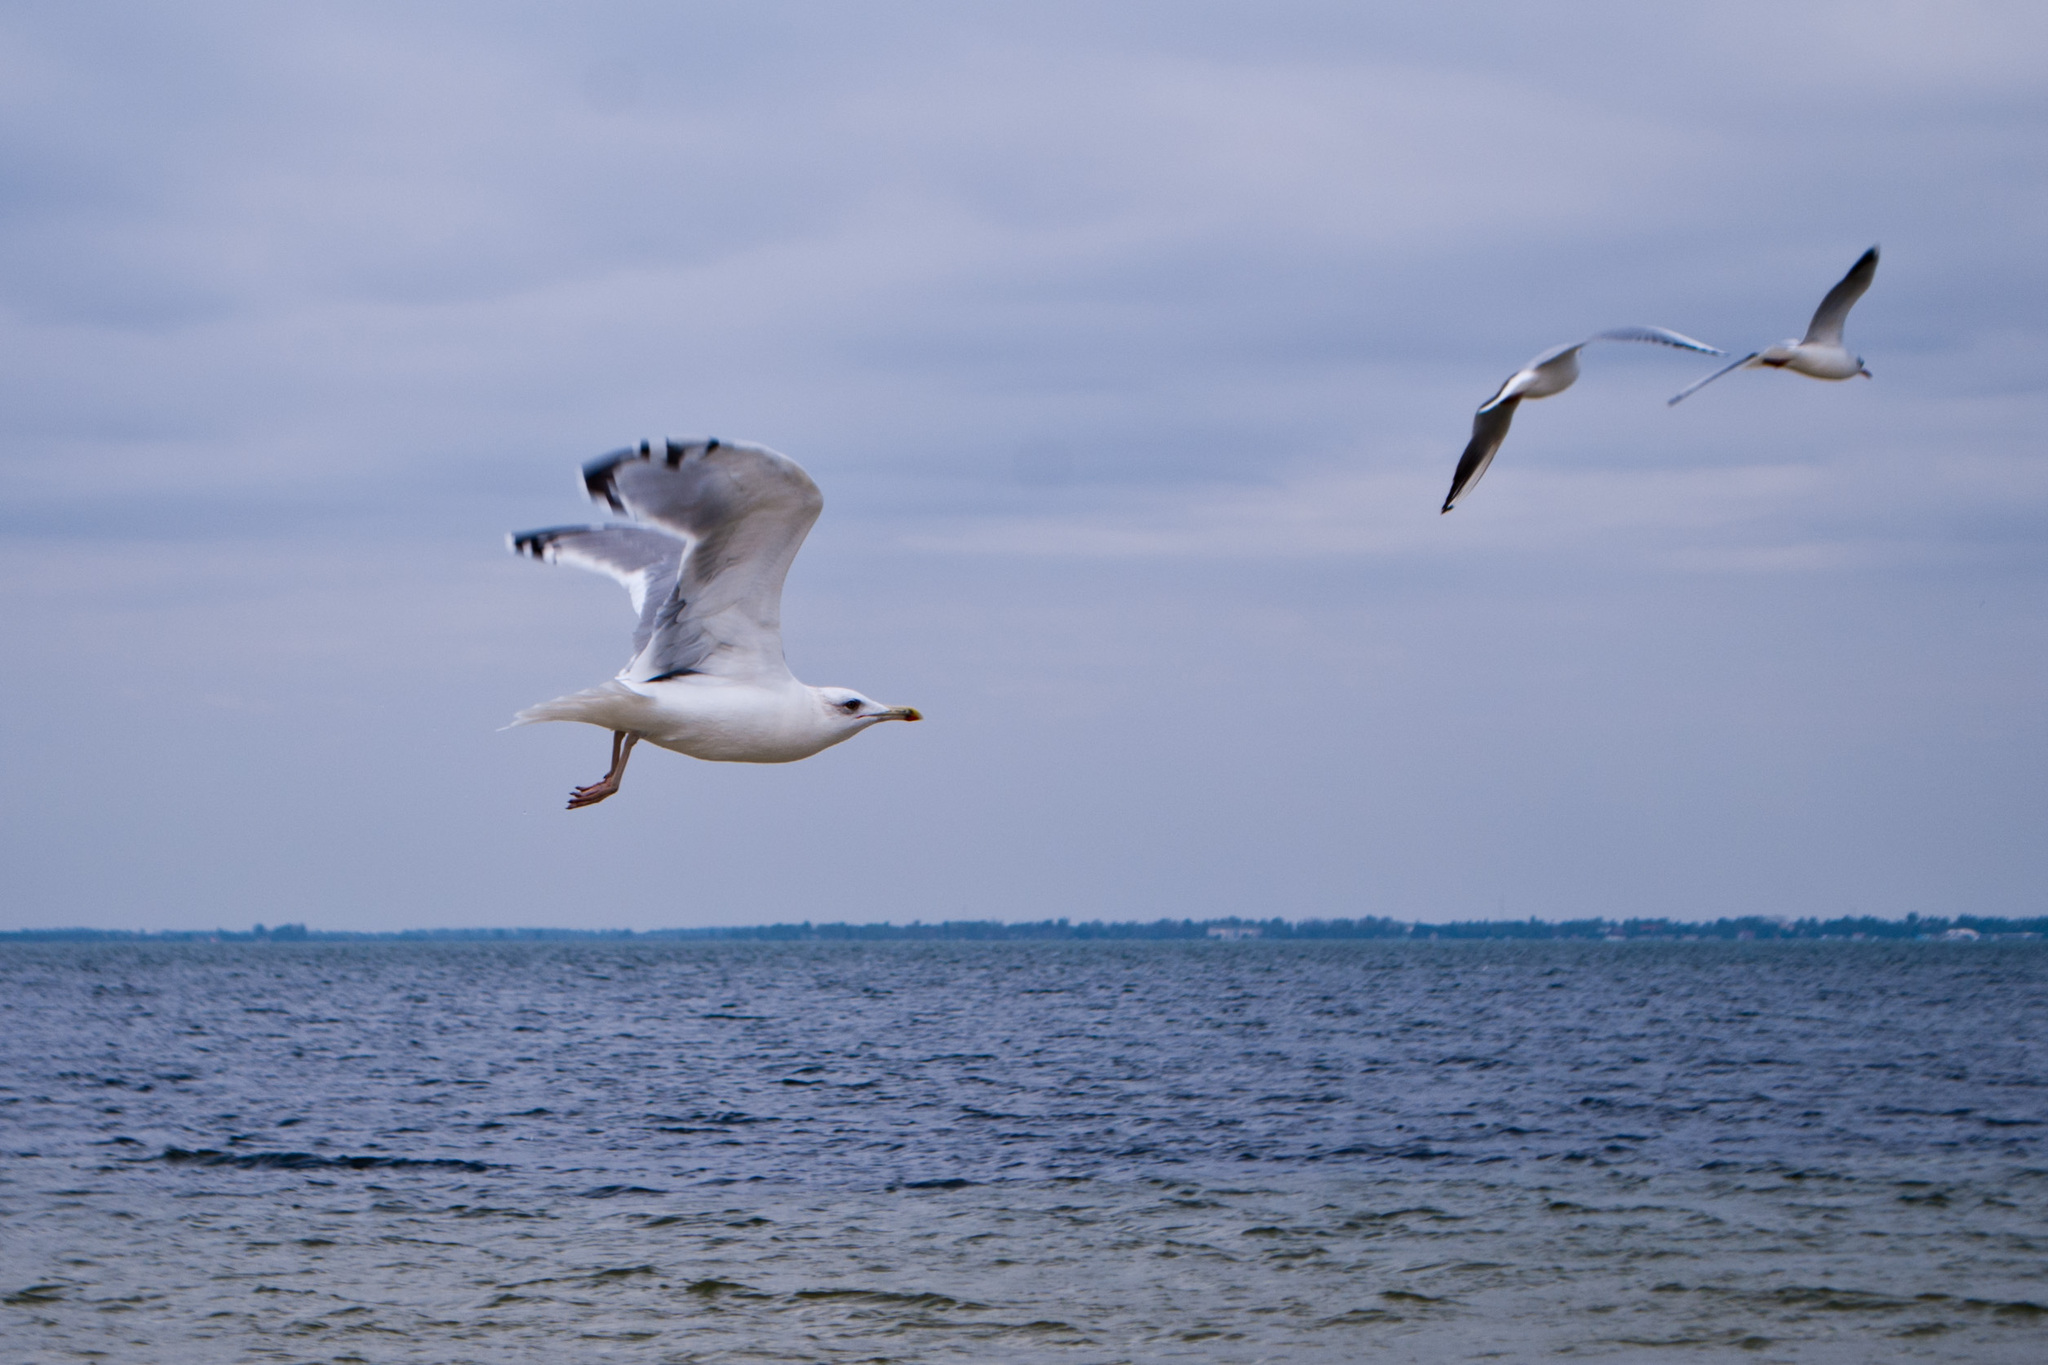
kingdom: Animalia
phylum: Chordata
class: Aves
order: Charadriiformes
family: Laridae
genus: Larus
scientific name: Larus cachinnans
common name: Caspian gull
